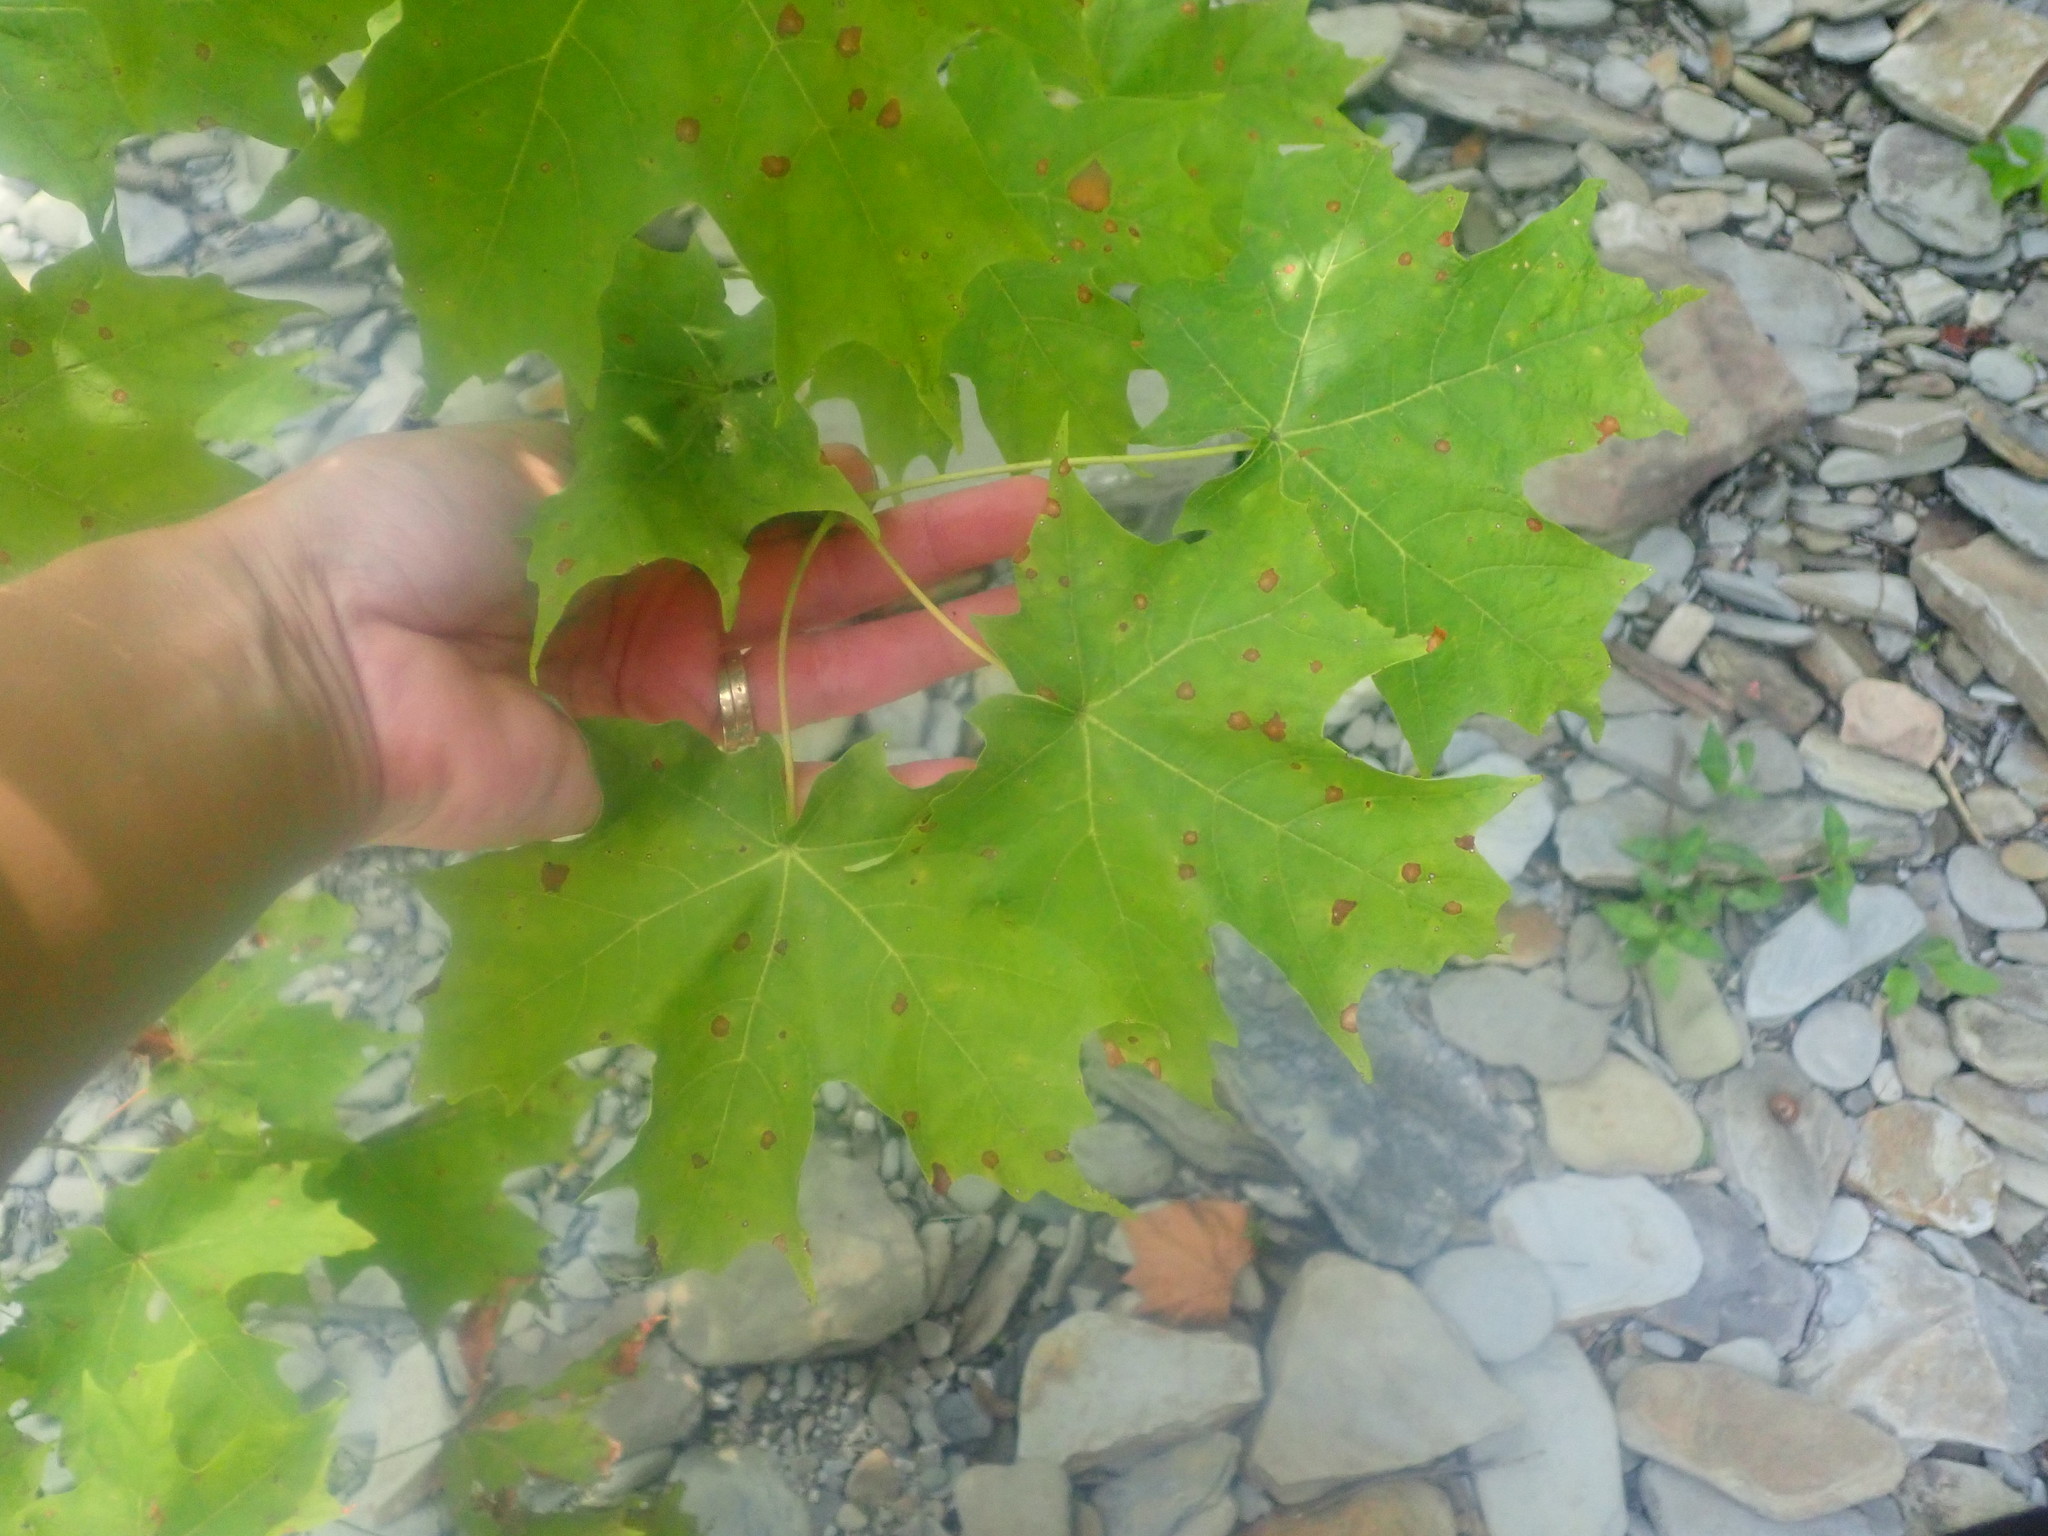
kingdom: Plantae
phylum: Tracheophyta
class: Magnoliopsida
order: Sapindales
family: Sapindaceae
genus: Acer
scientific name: Acer saccharum
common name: Sugar maple
